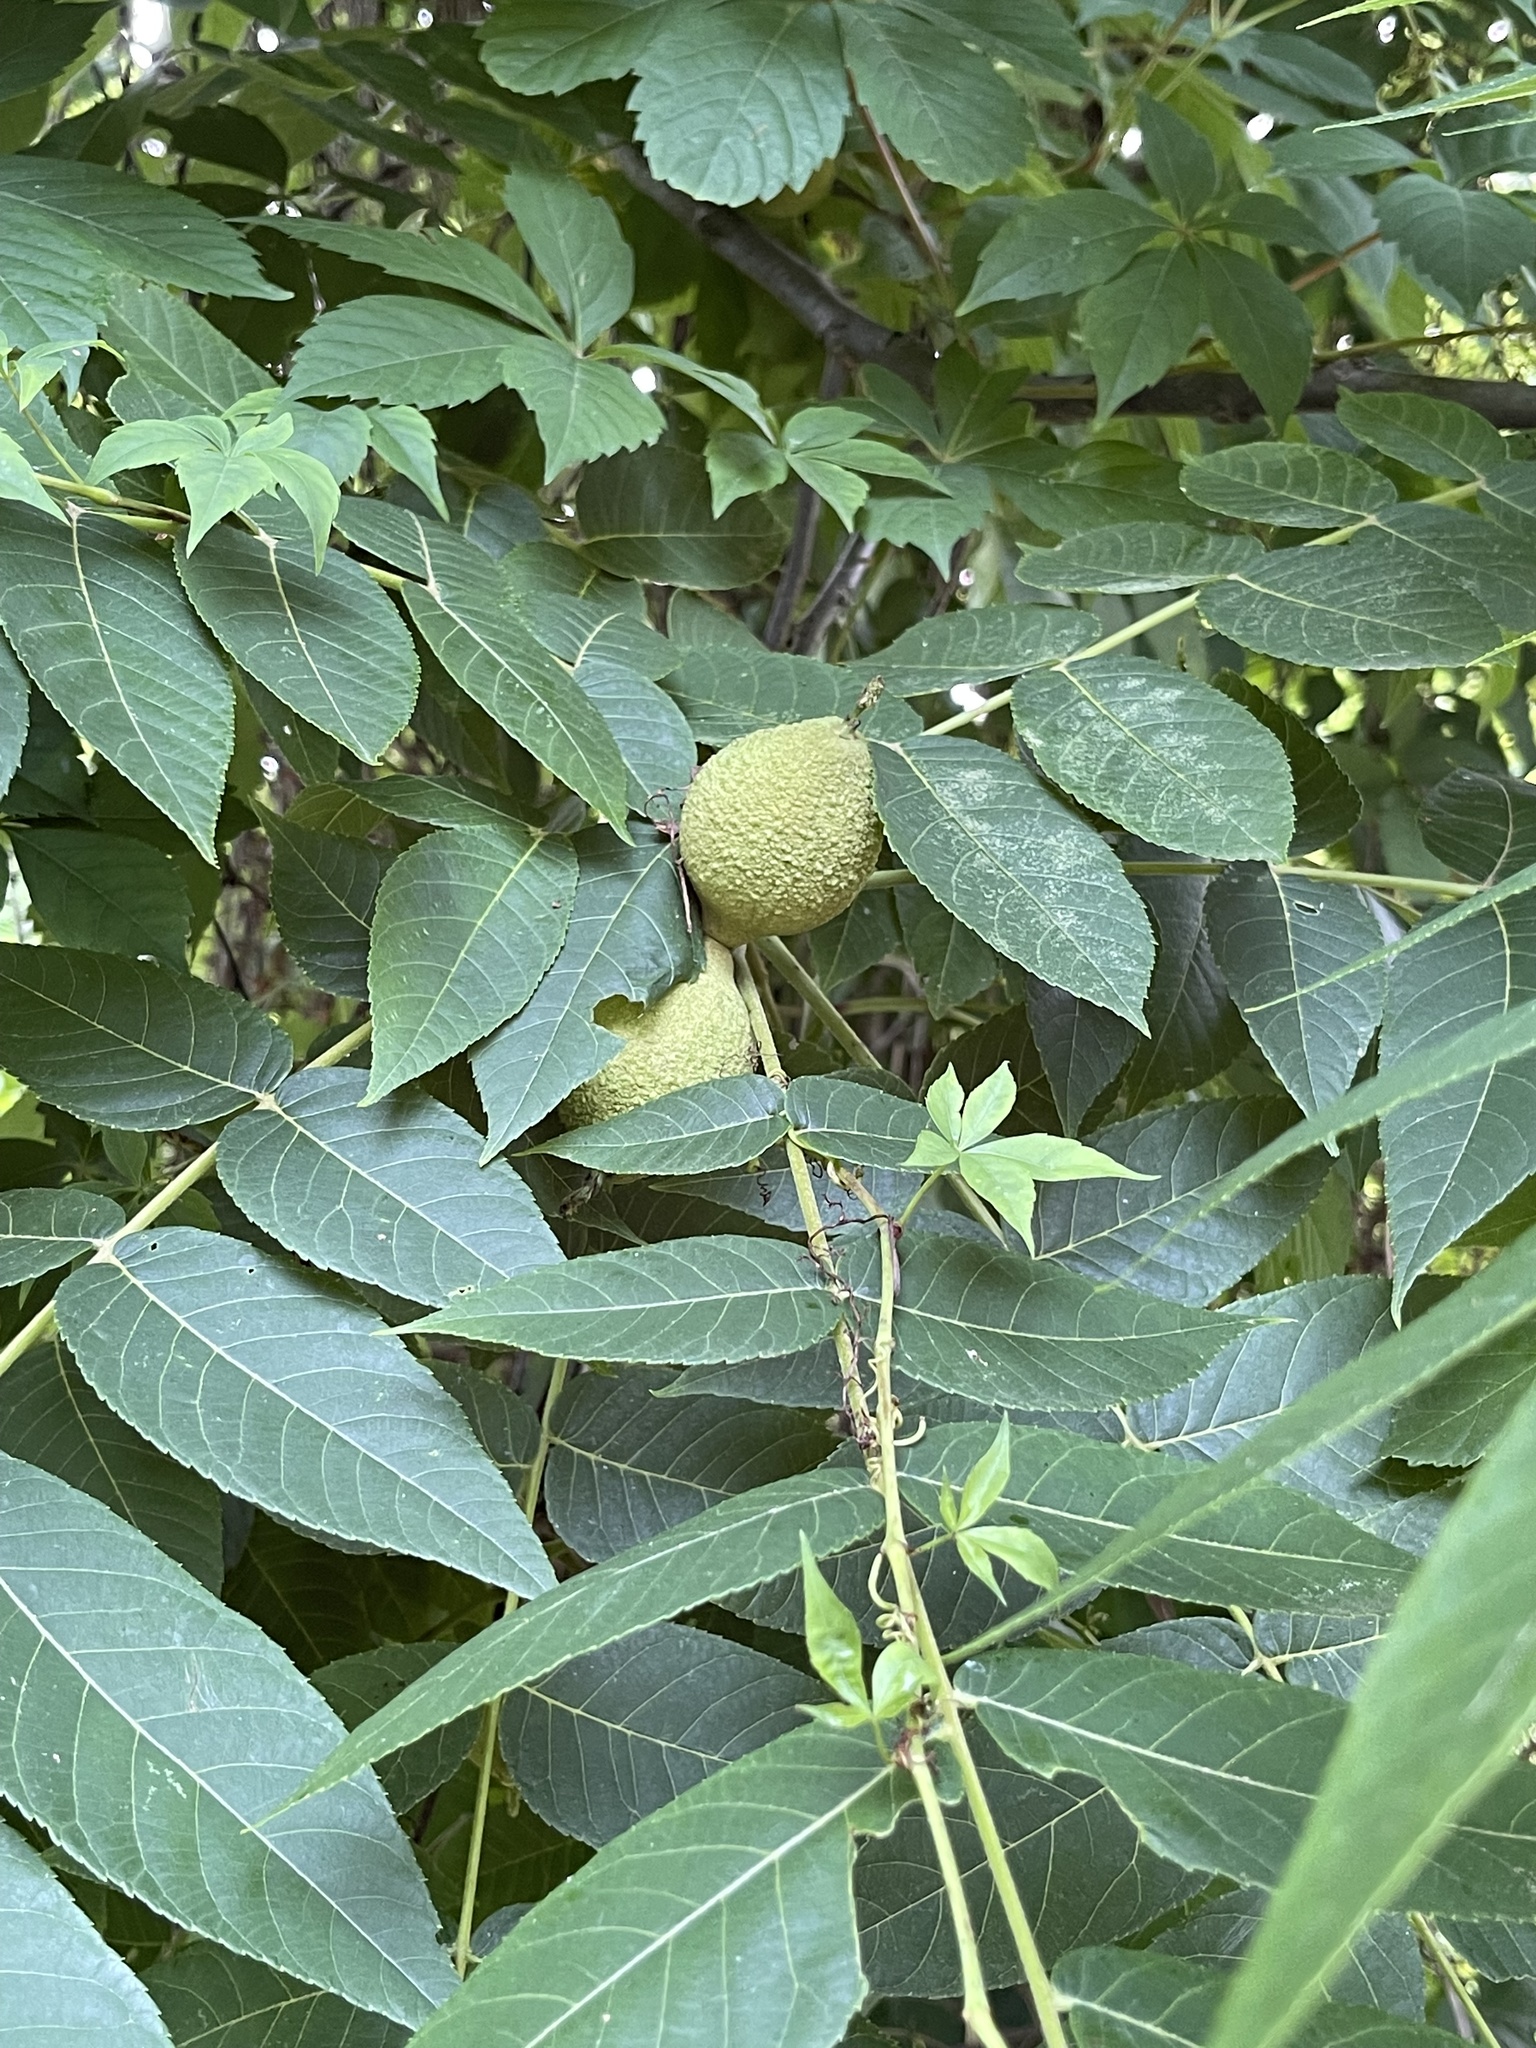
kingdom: Plantae
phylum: Tracheophyta
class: Magnoliopsida
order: Fagales
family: Juglandaceae
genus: Juglans
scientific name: Juglans nigra
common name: Black walnut
